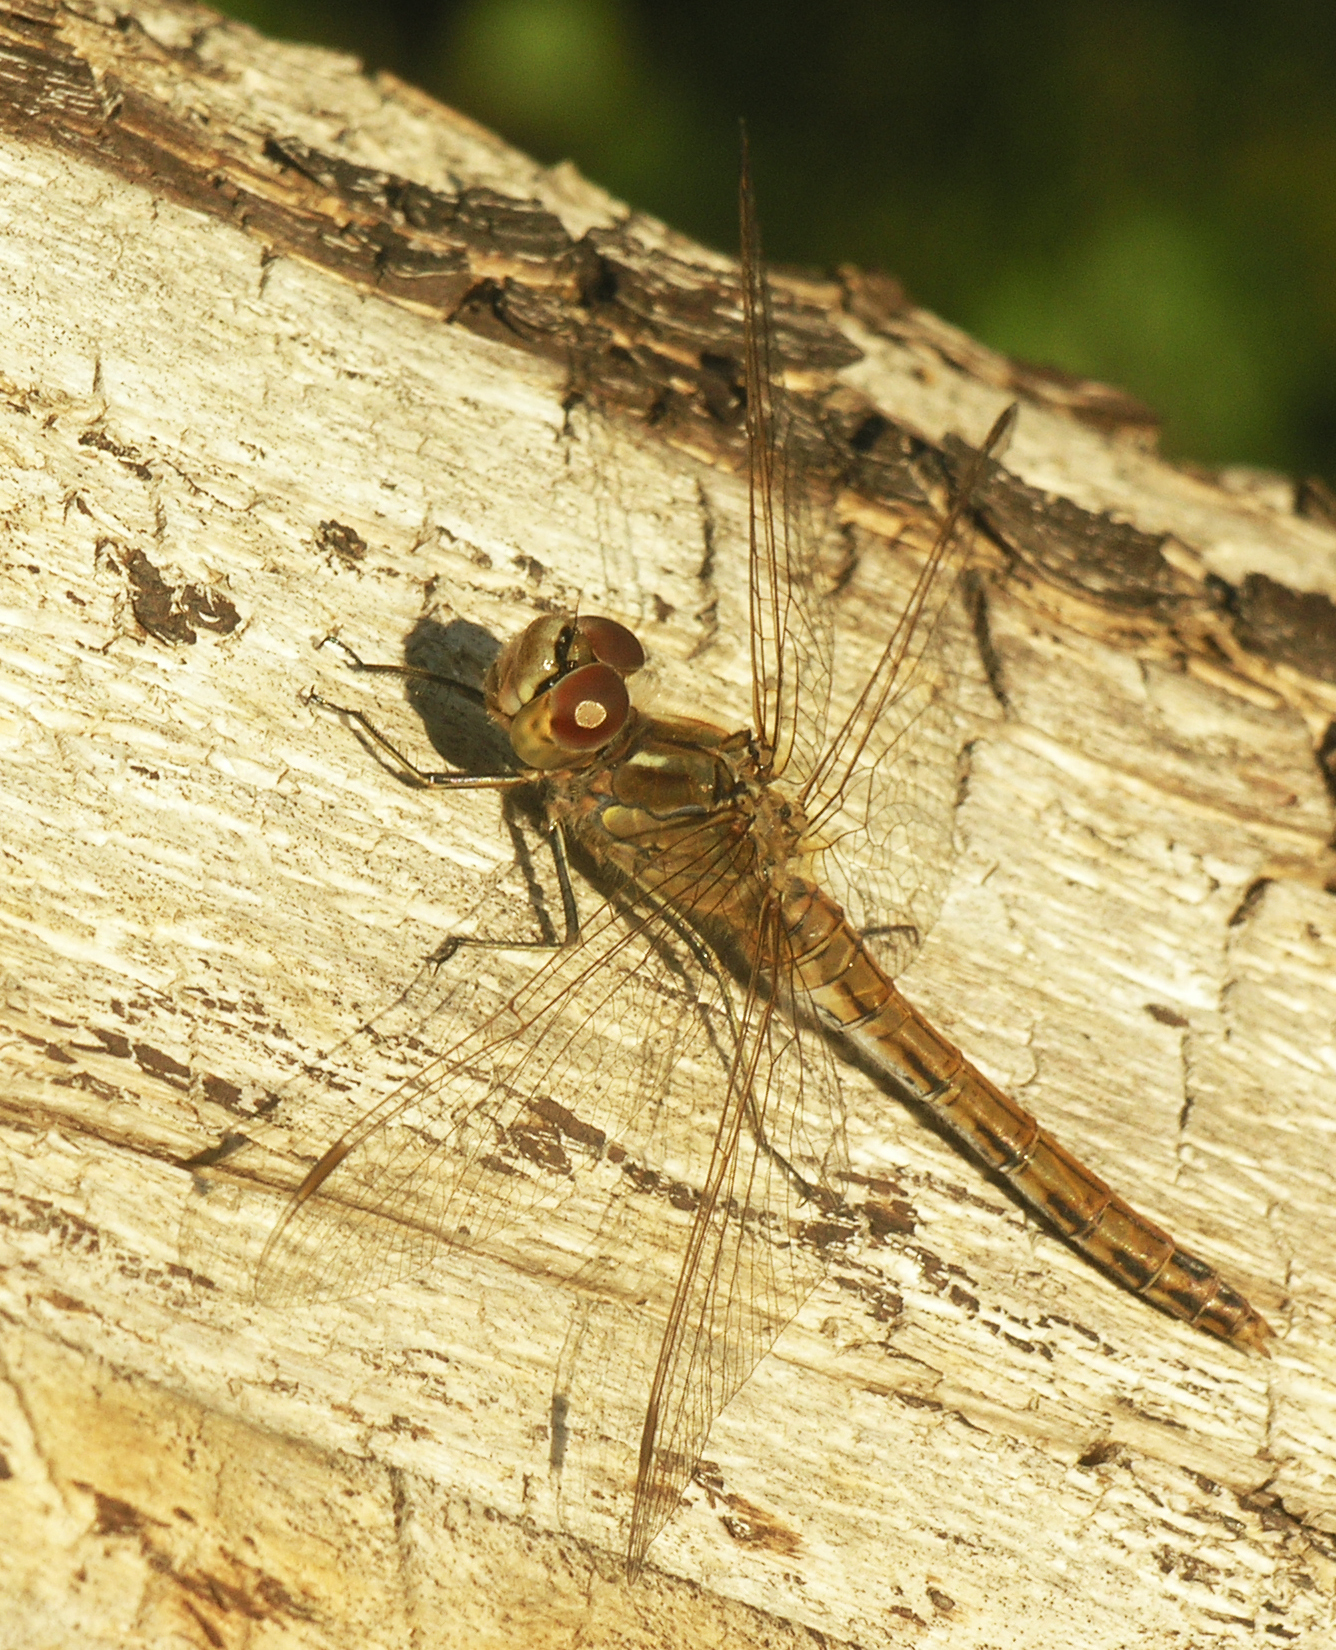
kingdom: Animalia
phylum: Arthropoda
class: Insecta
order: Odonata
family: Libellulidae
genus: Sympetrum
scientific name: Sympetrum vulgatum
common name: Vagrant darter
